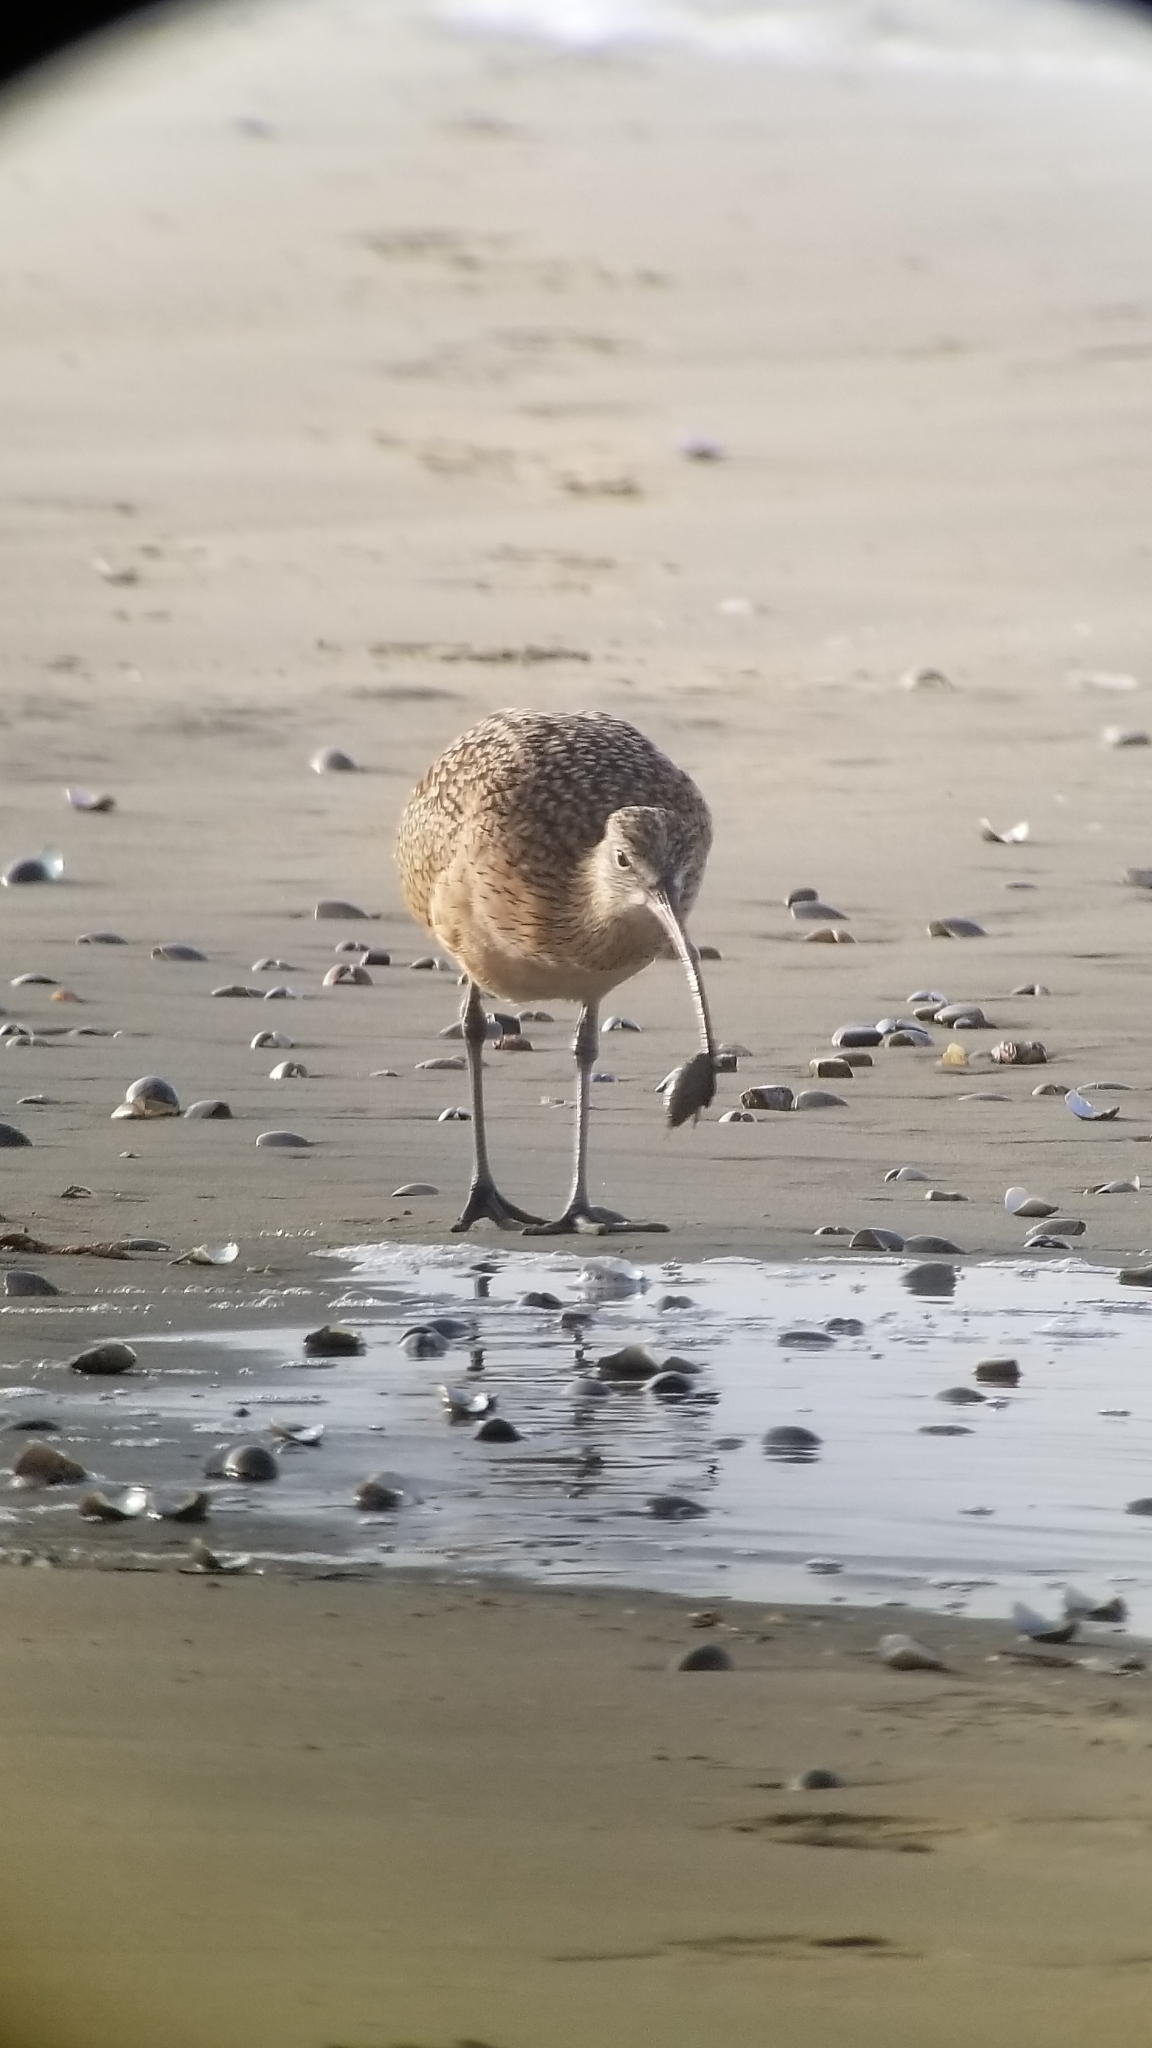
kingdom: Animalia
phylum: Chordata
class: Aves
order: Charadriiformes
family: Scolopacidae
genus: Numenius
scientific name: Numenius americanus
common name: Long-billed curlew
